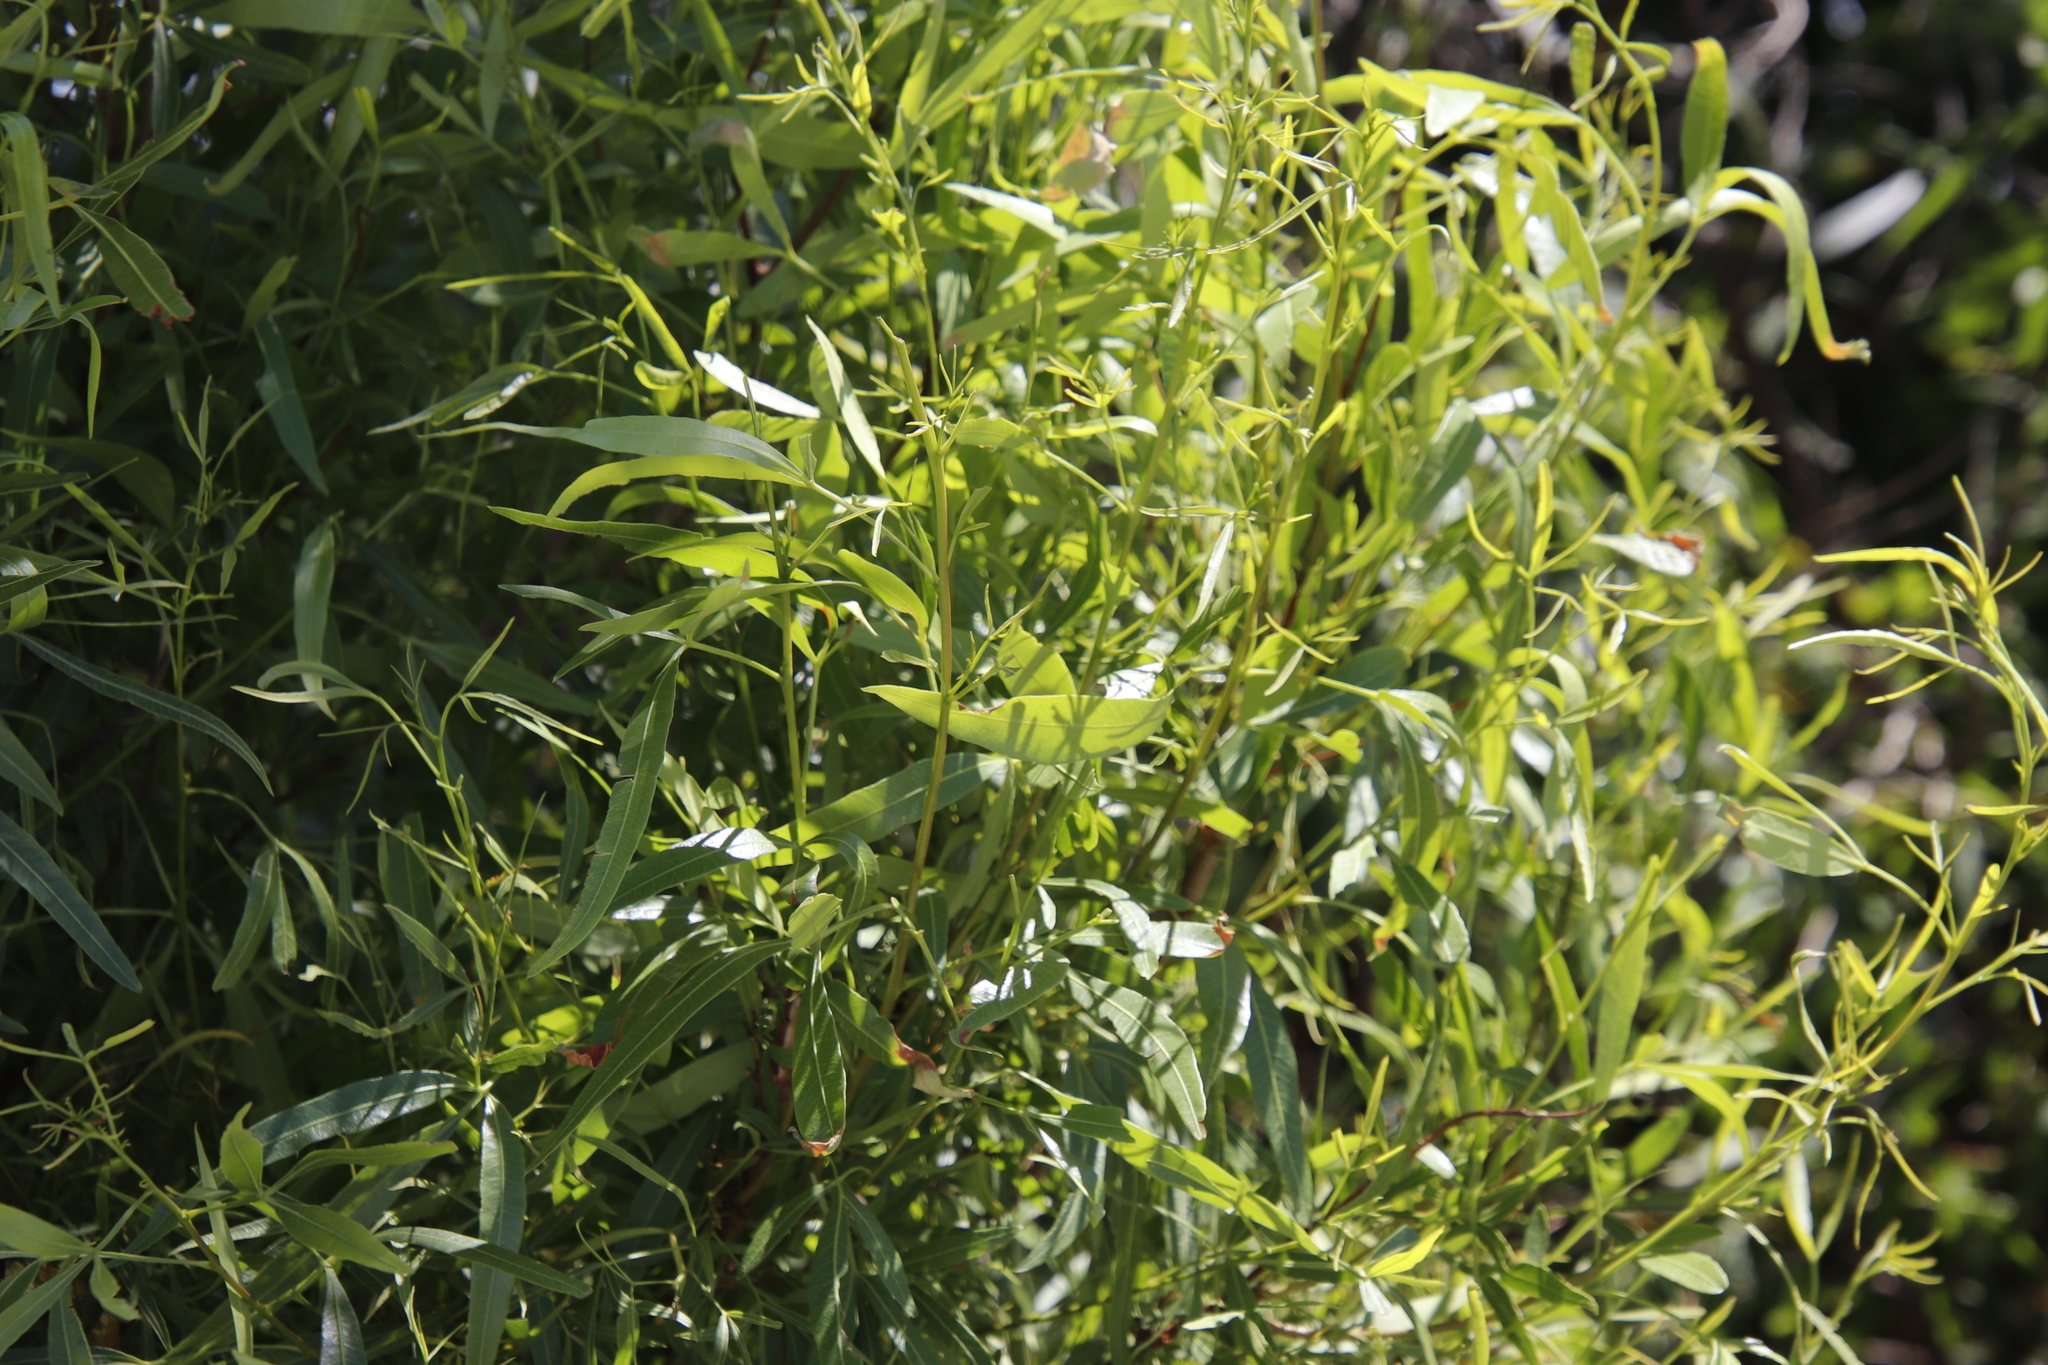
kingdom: Plantae
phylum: Tracheophyta
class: Magnoliopsida
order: Sapindales
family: Anacardiaceae
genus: Searsia
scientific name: Searsia lancea
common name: Cashew
